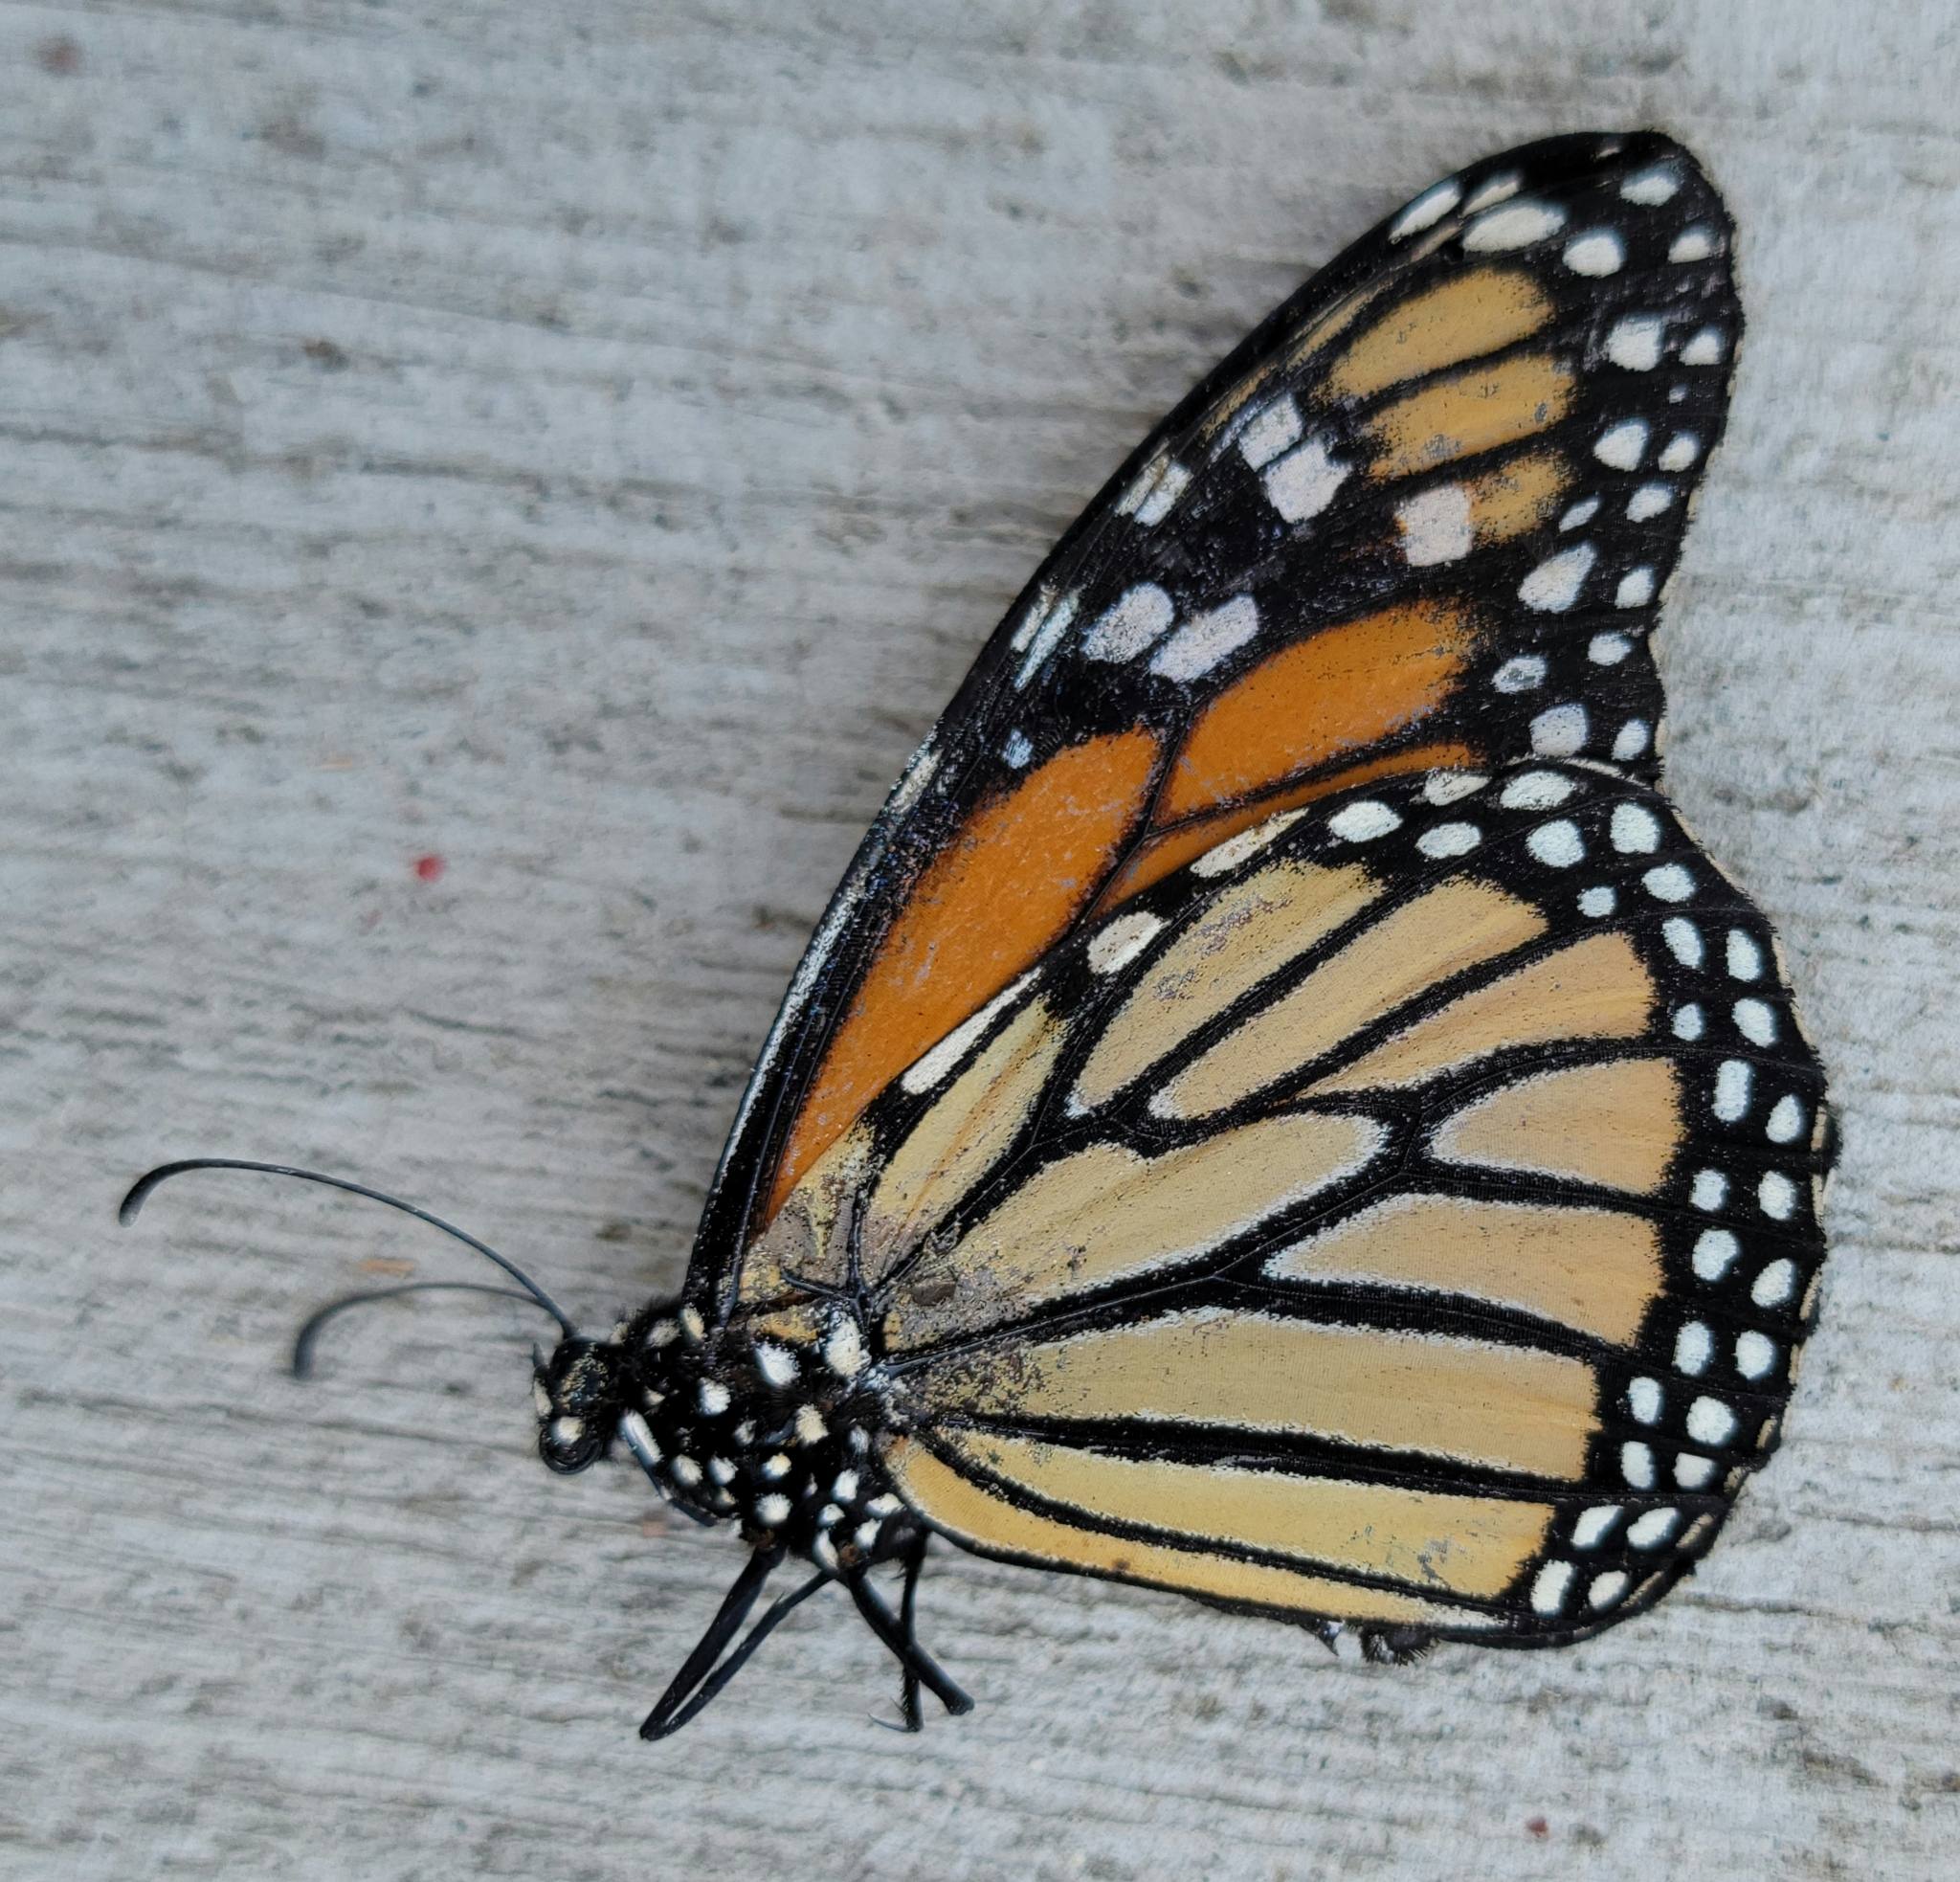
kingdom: Animalia
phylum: Arthropoda
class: Insecta
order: Lepidoptera
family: Nymphalidae
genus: Danaus
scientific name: Danaus plexippus
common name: Monarch
